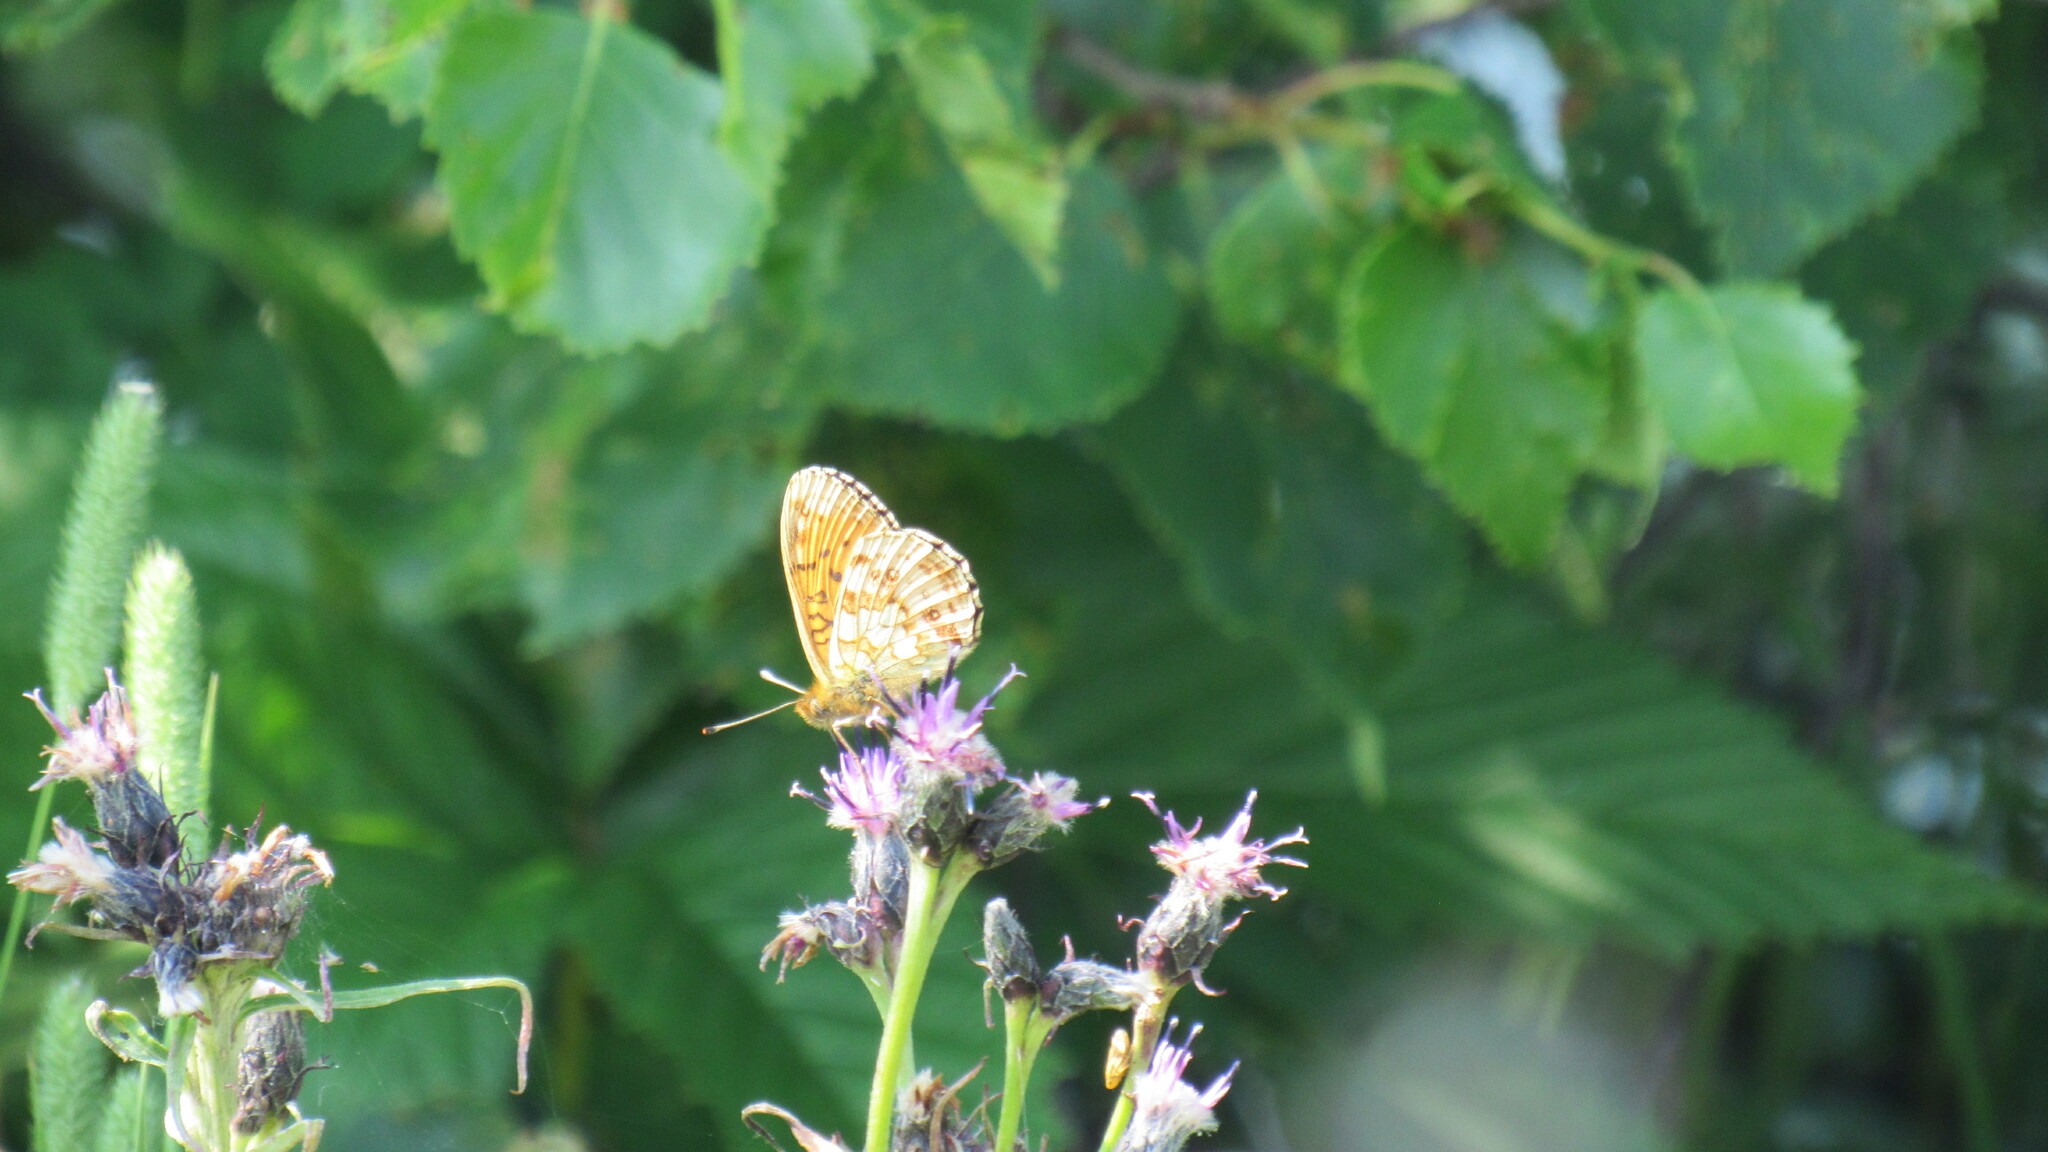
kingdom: Animalia
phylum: Arthropoda
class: Insecta
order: Lepidoptera
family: Nymphalidae
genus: Brenthis
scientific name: Brenthis ino
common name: Lesser marbled fritillary
